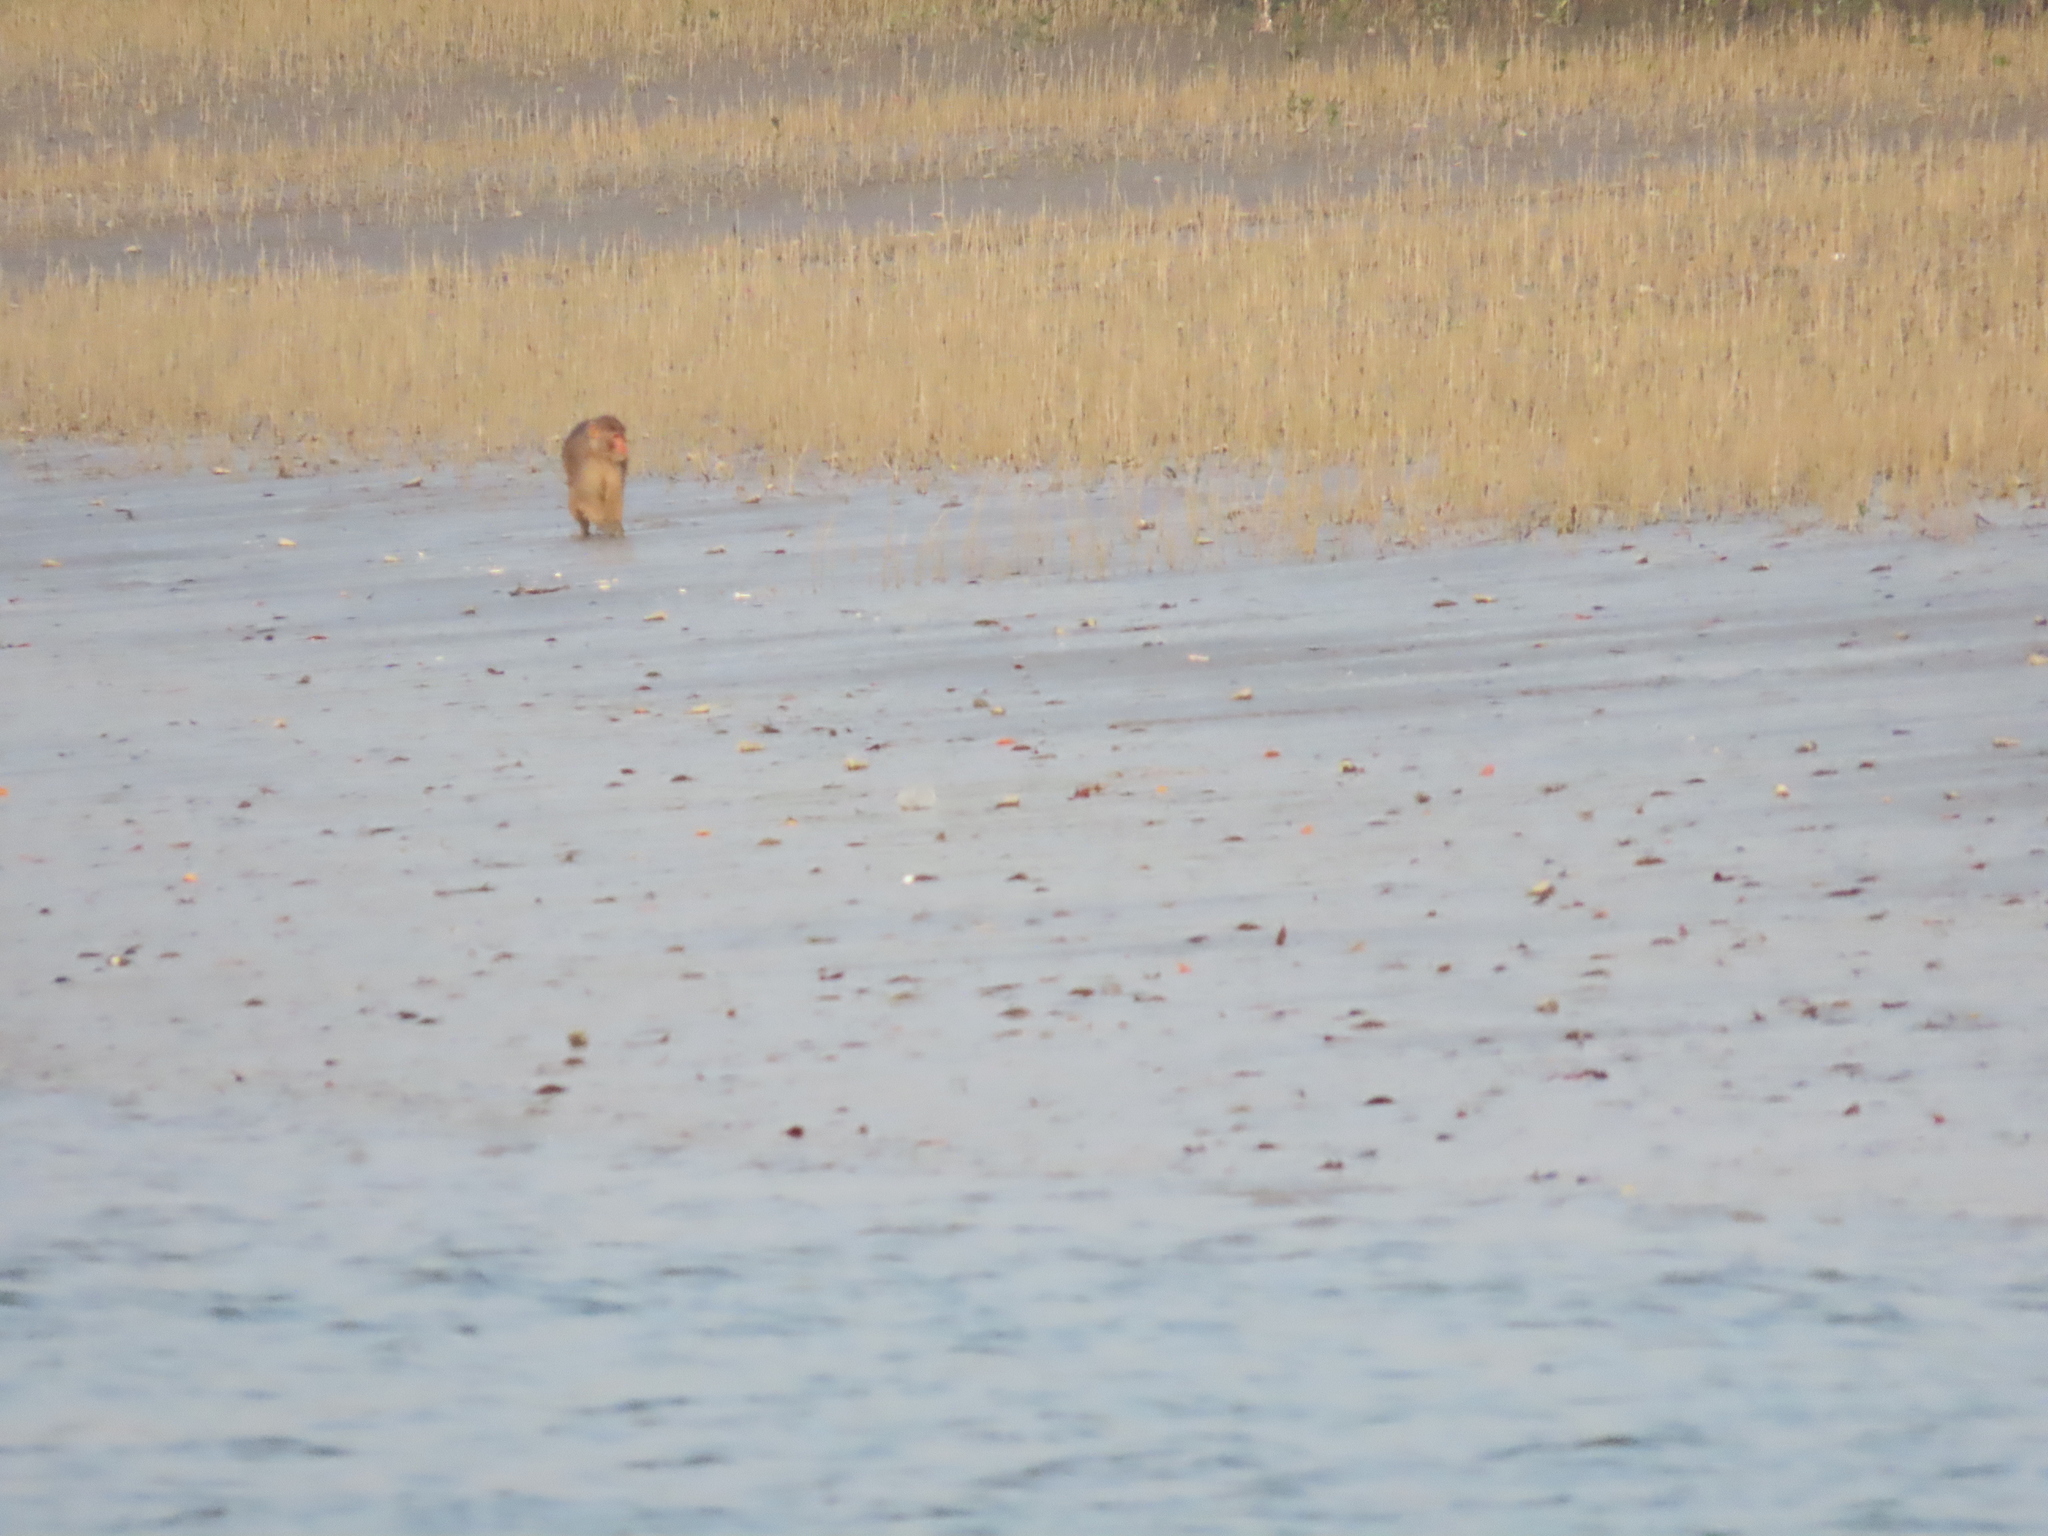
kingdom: Animalia
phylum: Chordata
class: Mammalia
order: Primates
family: Cercopithecidae
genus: Macaca
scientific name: Macaca mulatta
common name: Rhesus monkey
